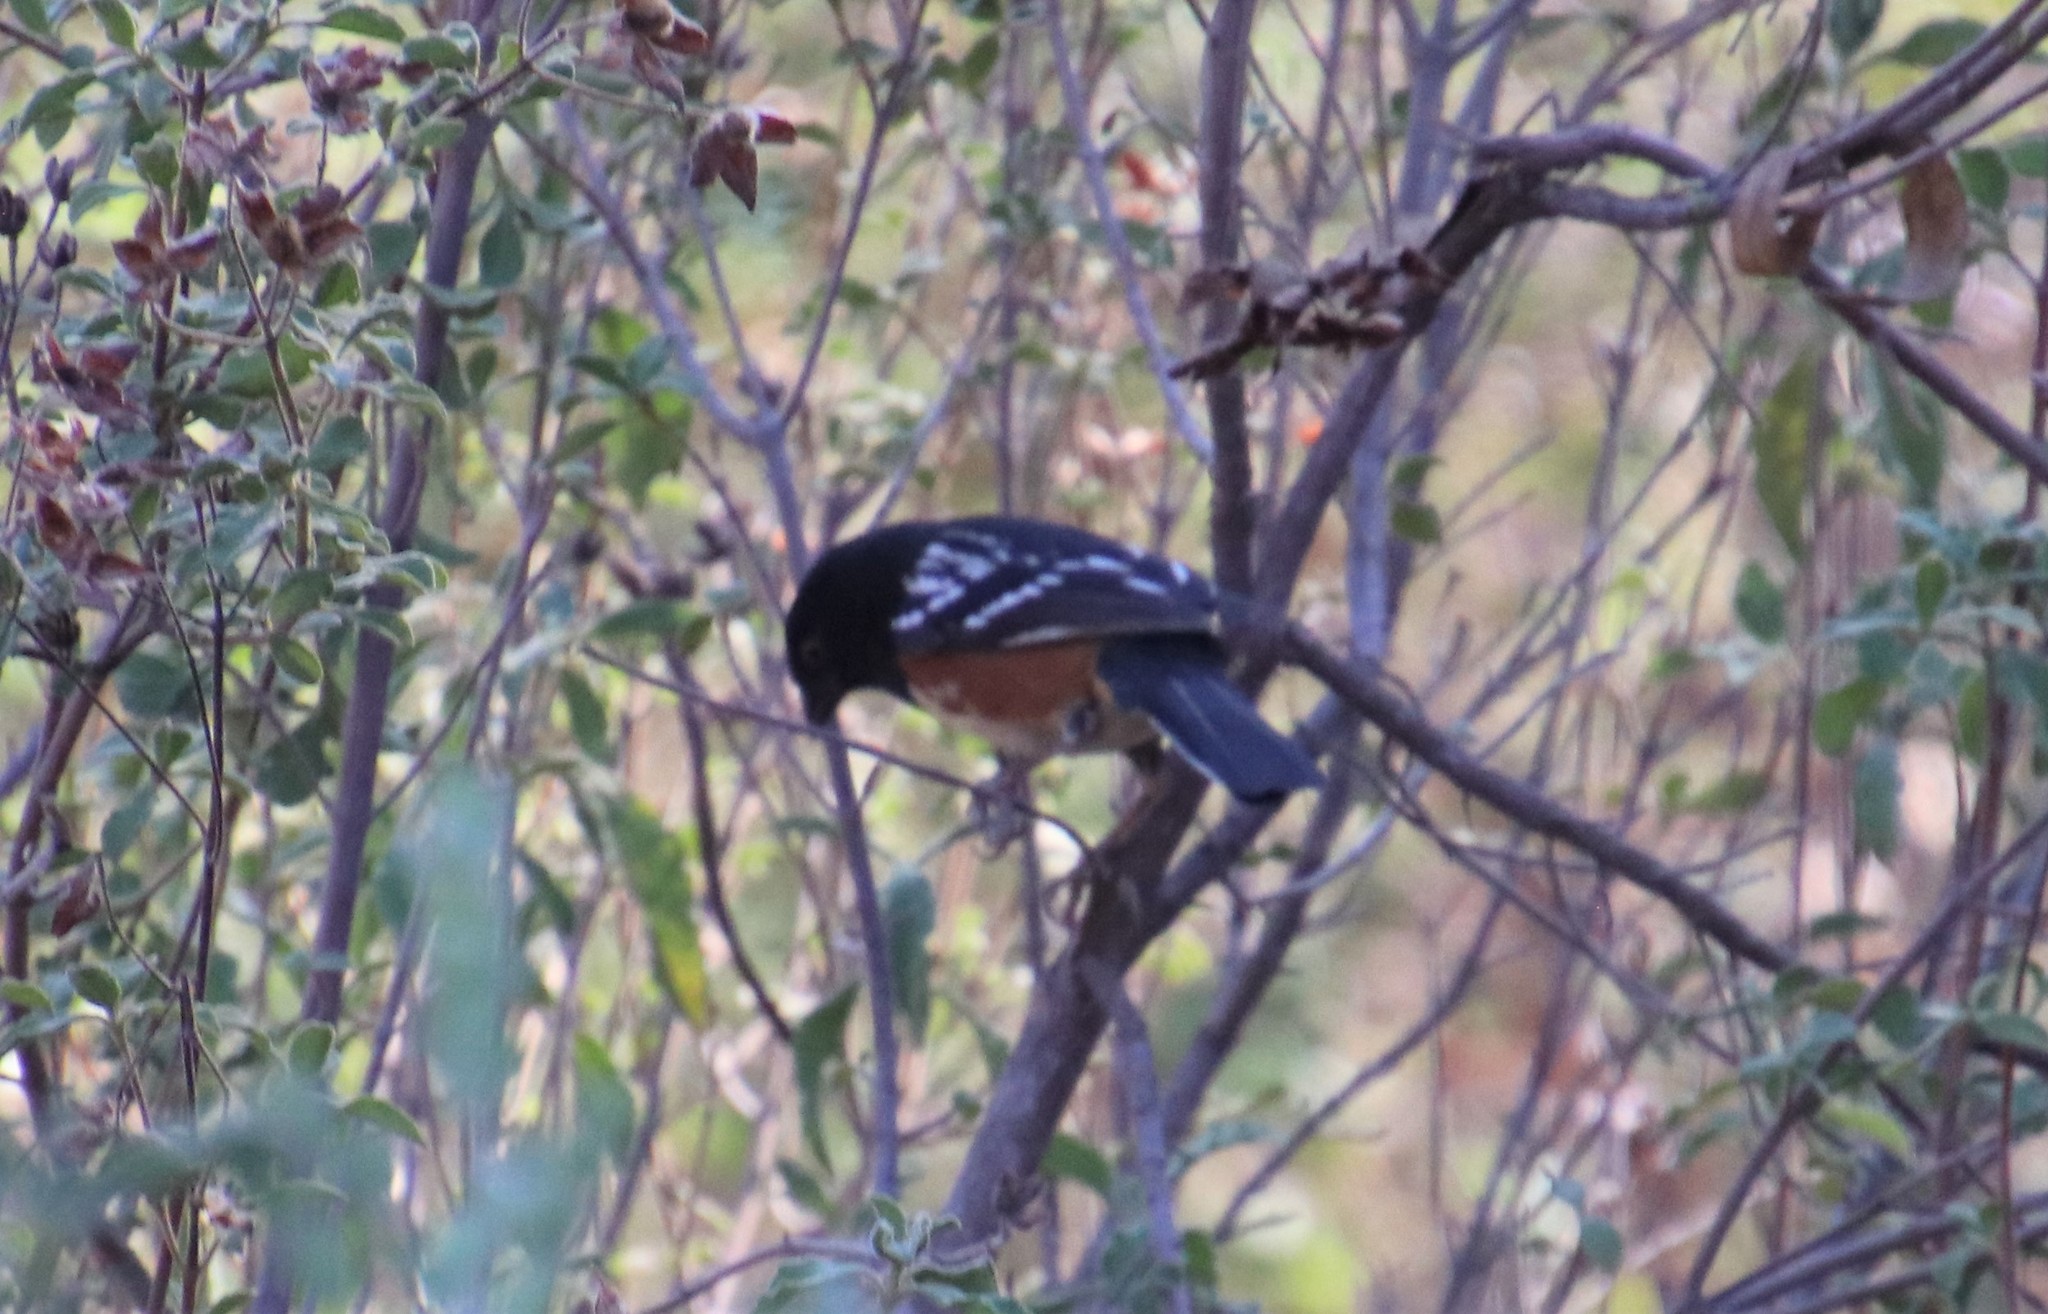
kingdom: Animalia
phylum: Chordata
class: Aves
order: Passeriformes
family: Passerellidae
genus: Pipilo
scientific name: Pipilo maculatus
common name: Spotted towhee
